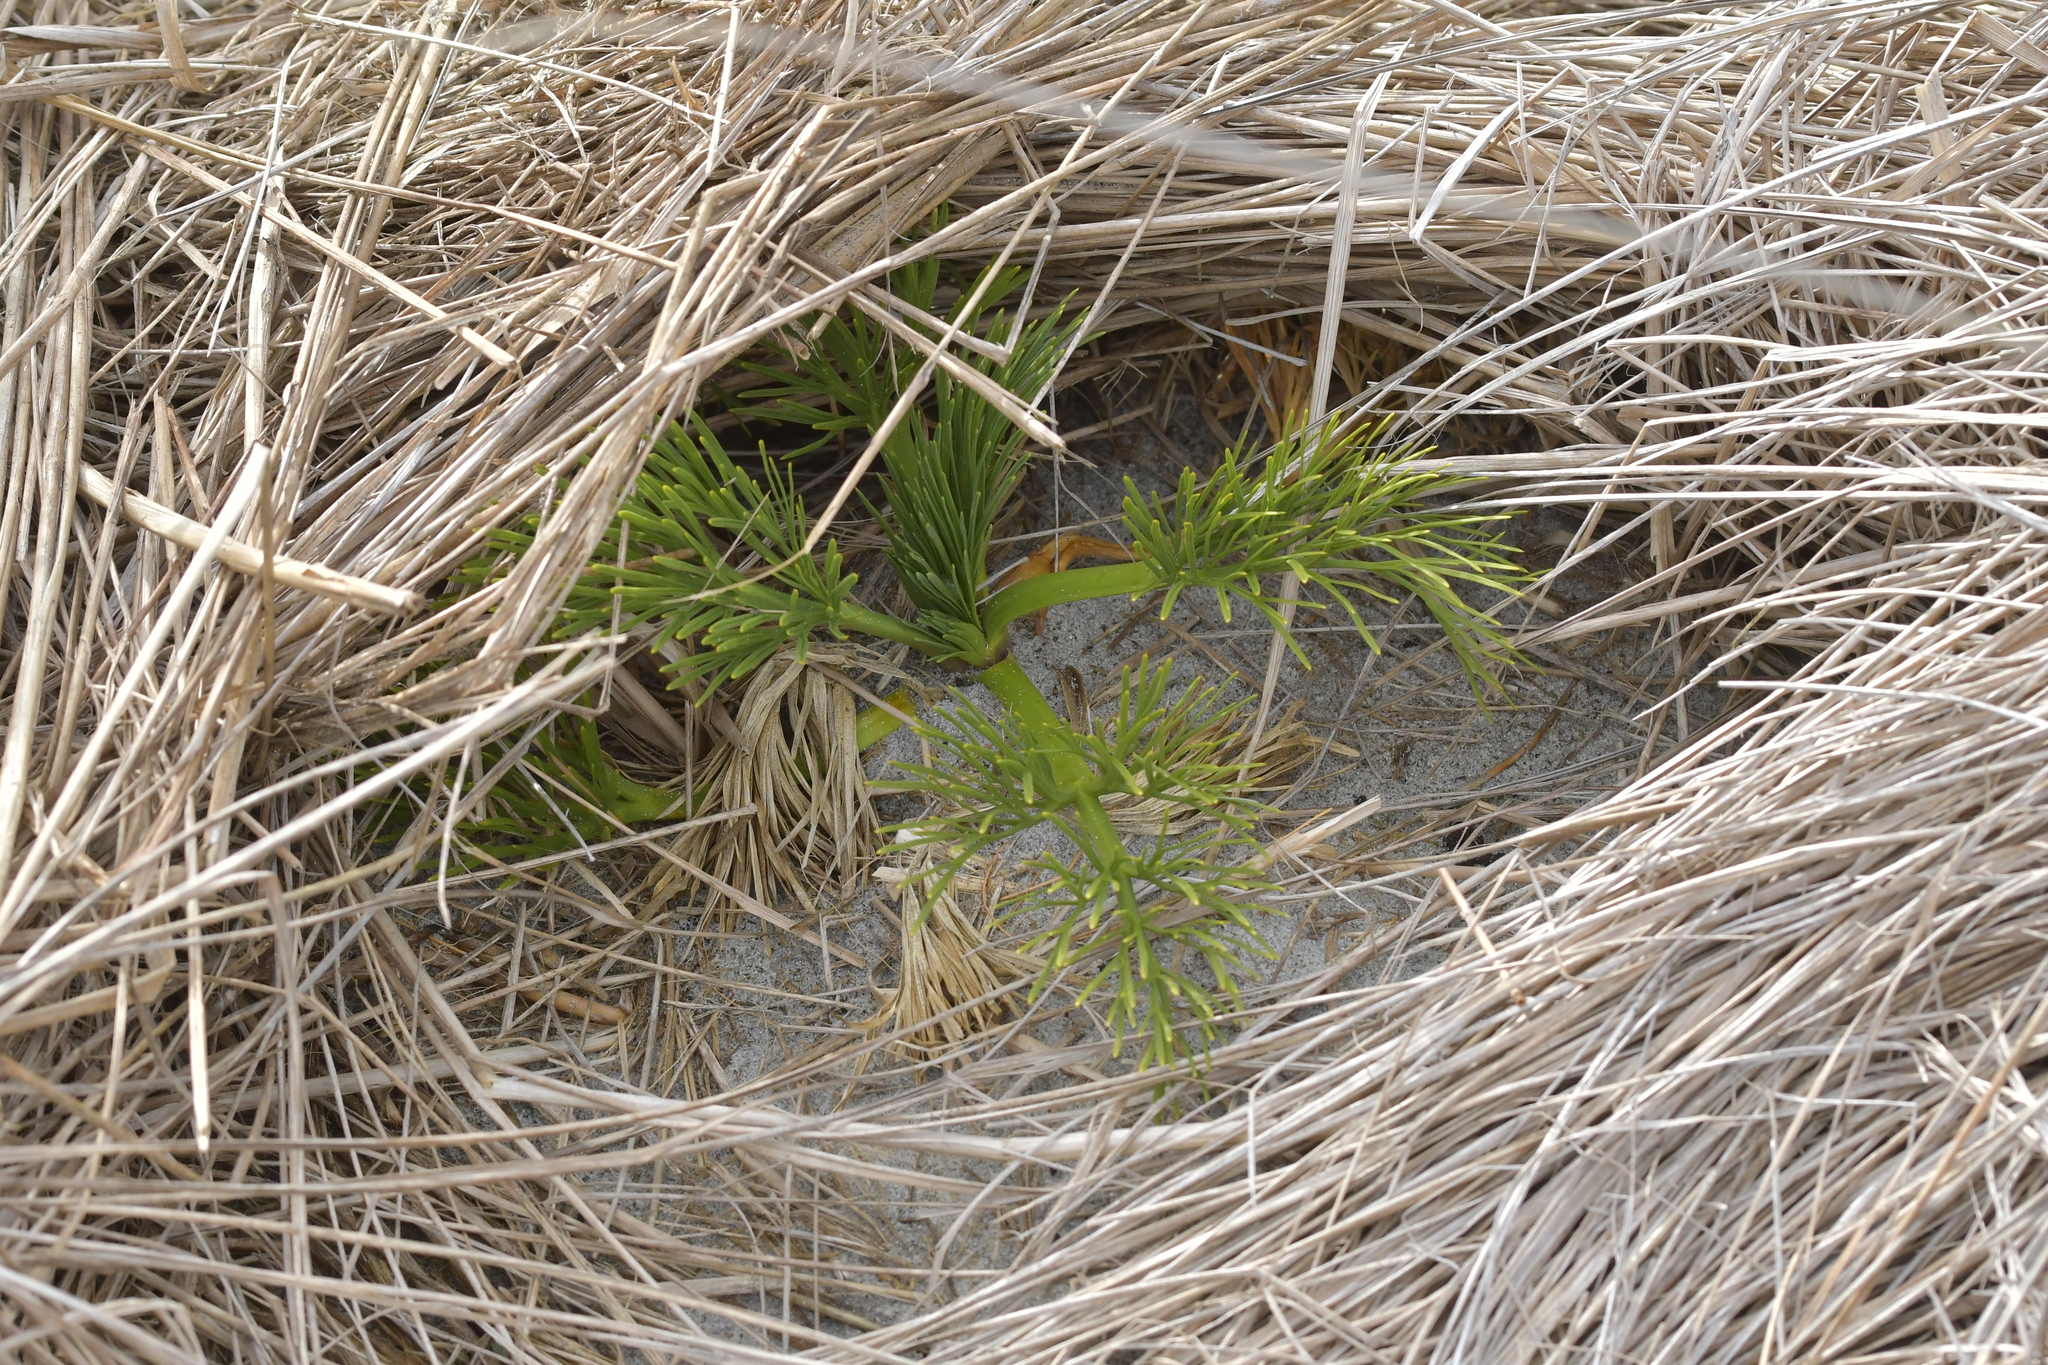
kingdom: Plantae
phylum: Tracheophyta
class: Magnoliopsida
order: Apiales
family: Apiaceae
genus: Aciphylla
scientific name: Aciphylla dieffenbachii
